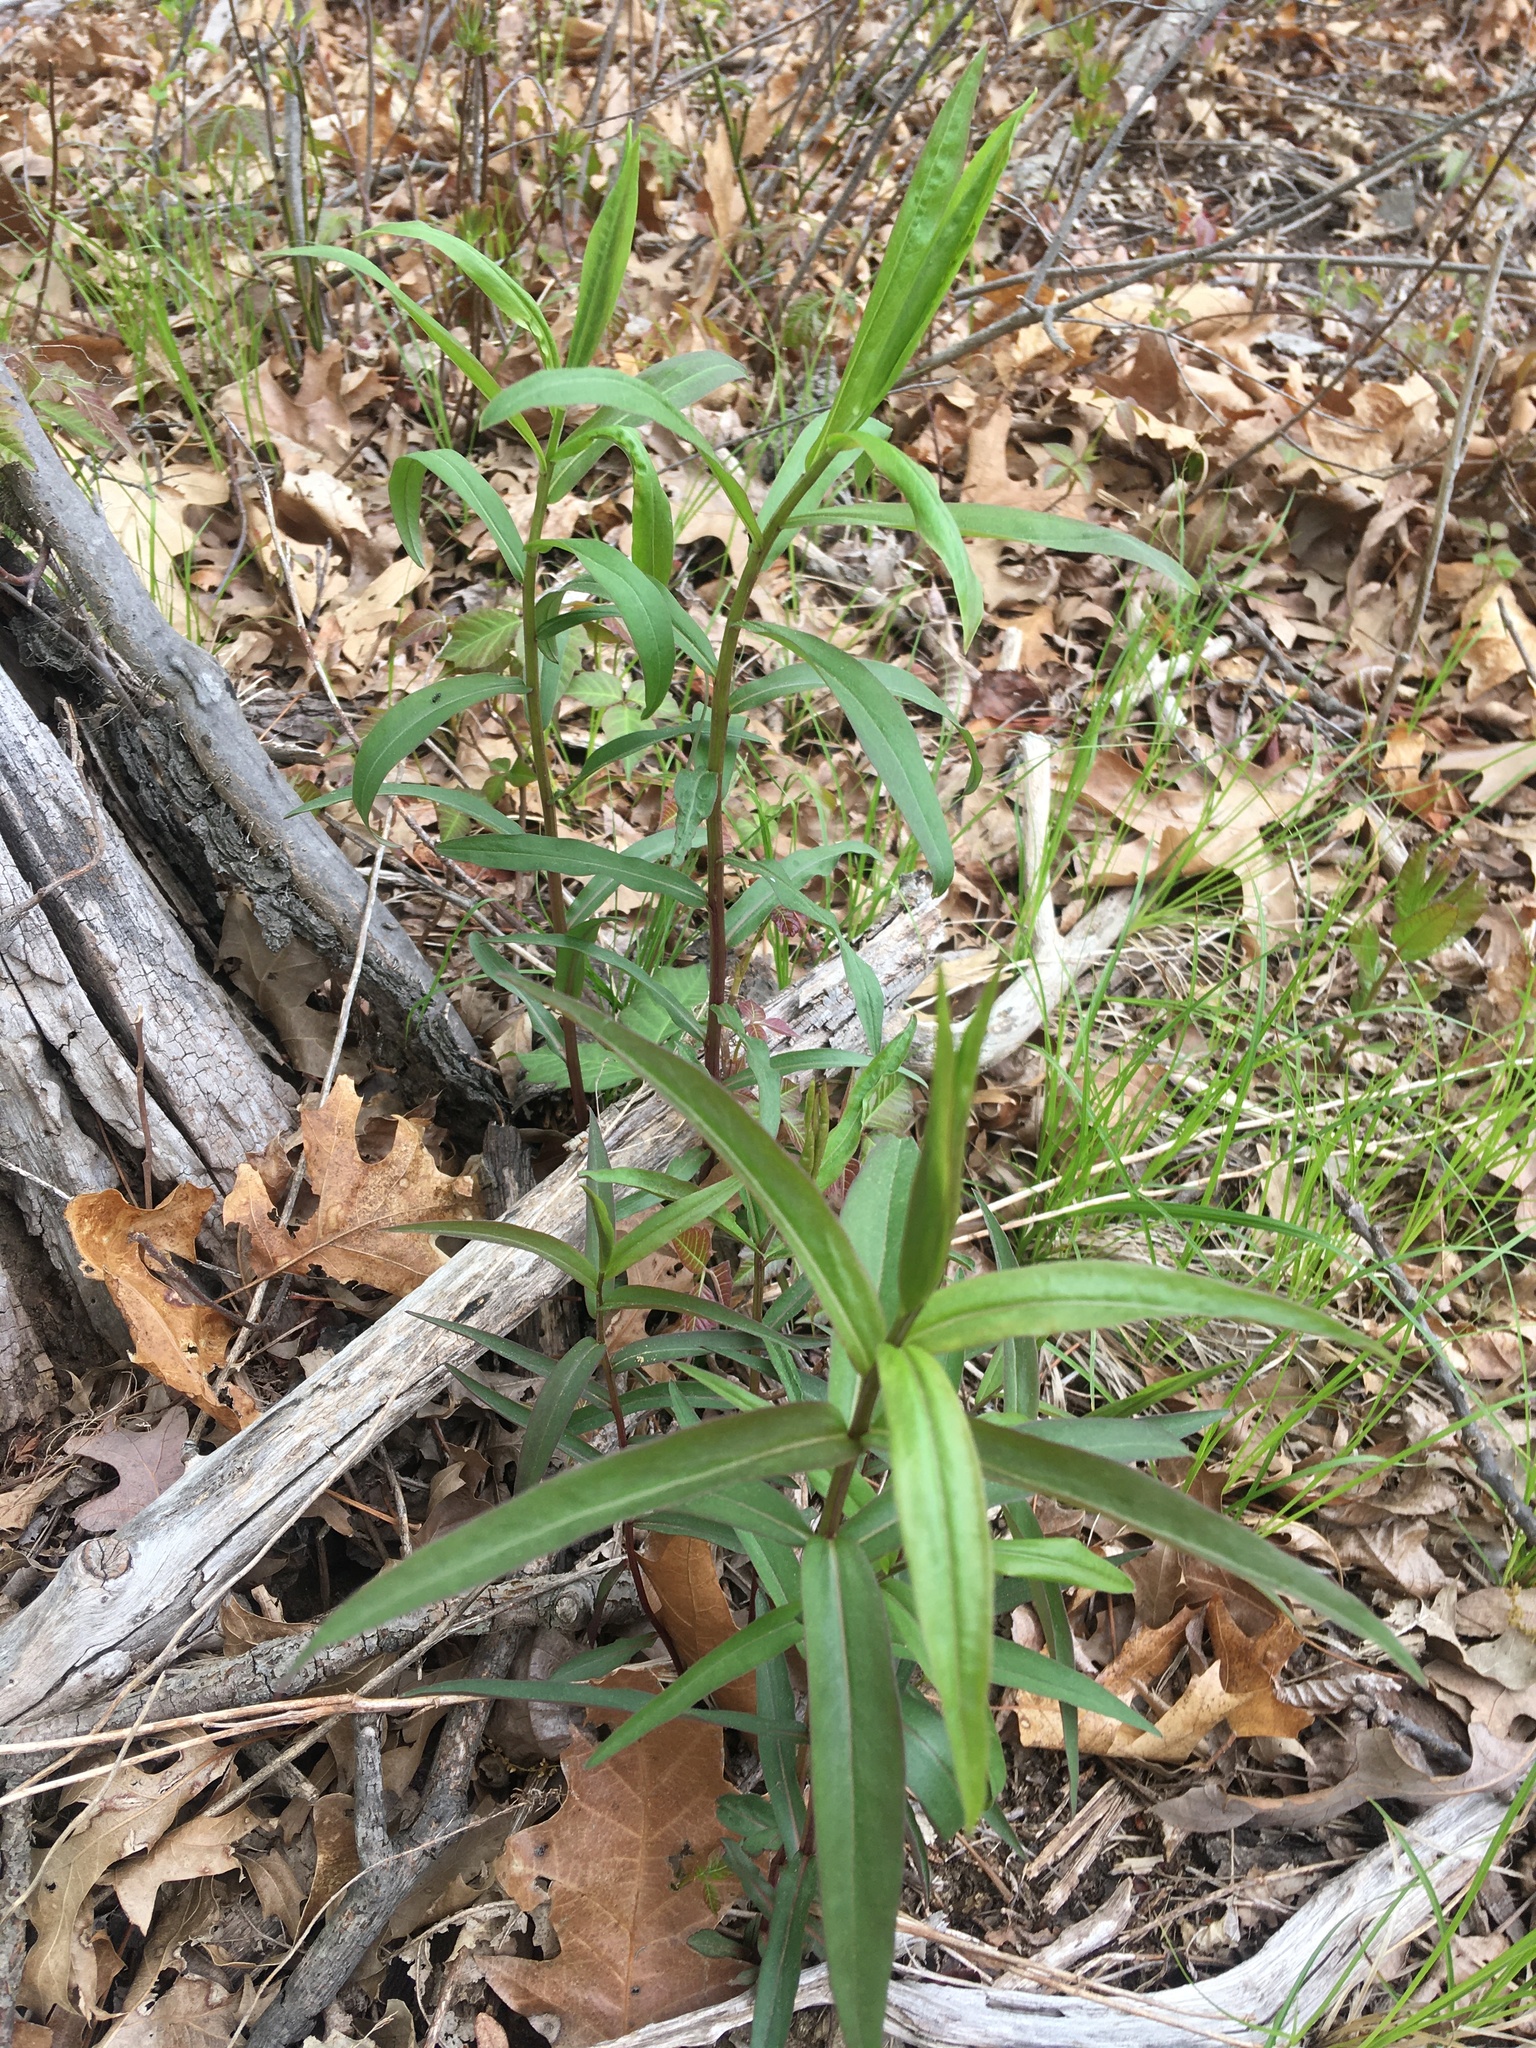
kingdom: Plantae
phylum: Tracheophyta
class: Magnoliopsida
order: Asterales
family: Asteraceae
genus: Solidago
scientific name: Solidago odora
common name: Anise-scented goldenrod
